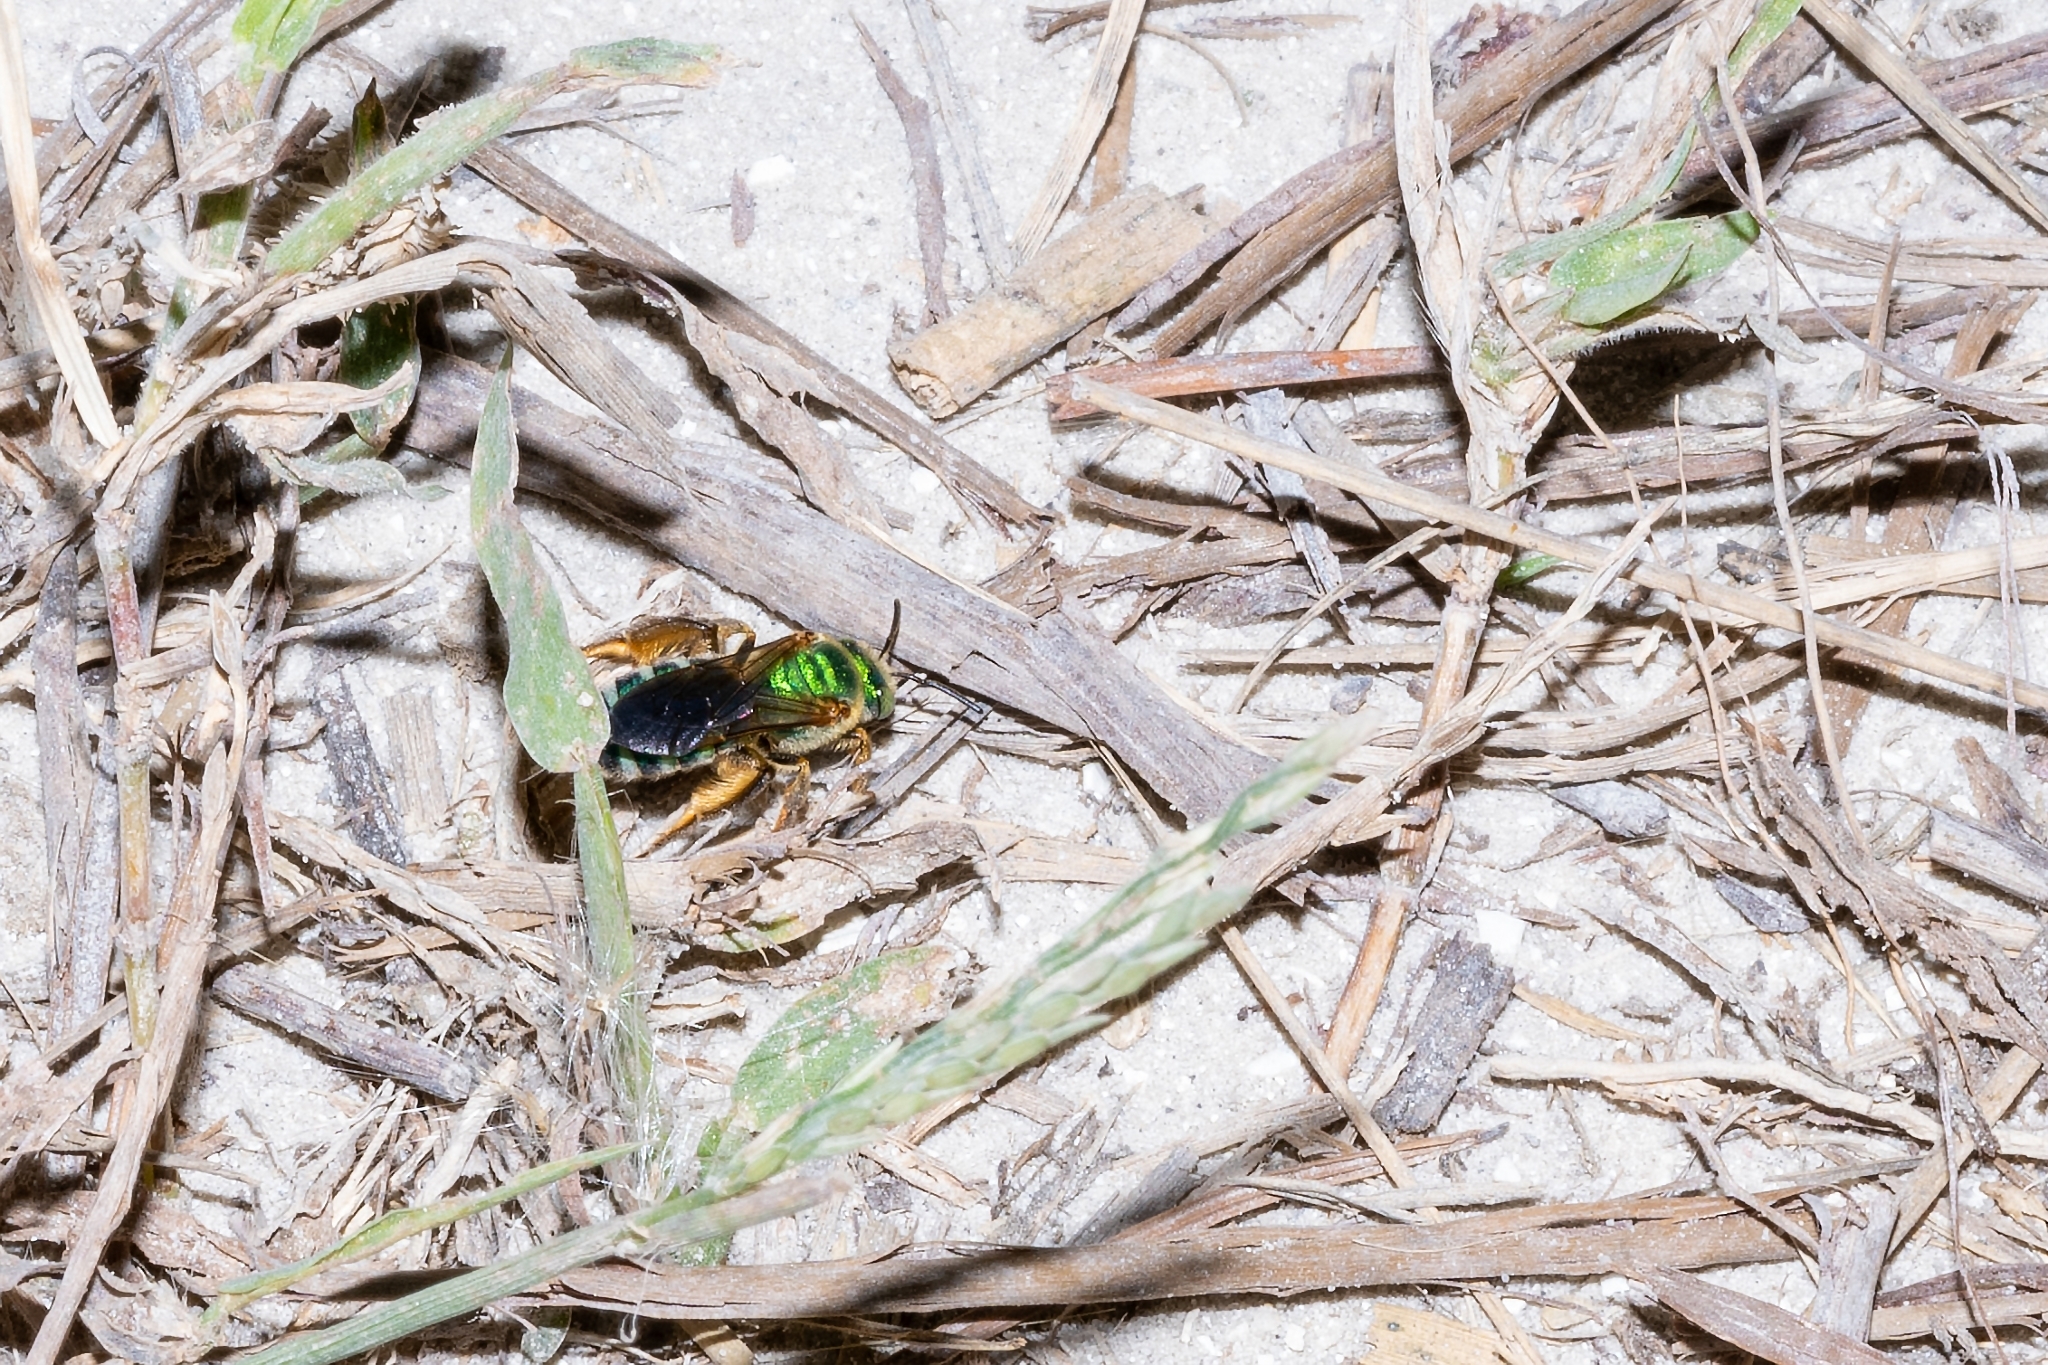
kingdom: Animalia
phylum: Arthropoda
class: Insecta
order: Hymenoptera
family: Halictidae
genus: Agapostemon
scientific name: Agapostemon splendens
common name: Brown-winged striped sweat bee
